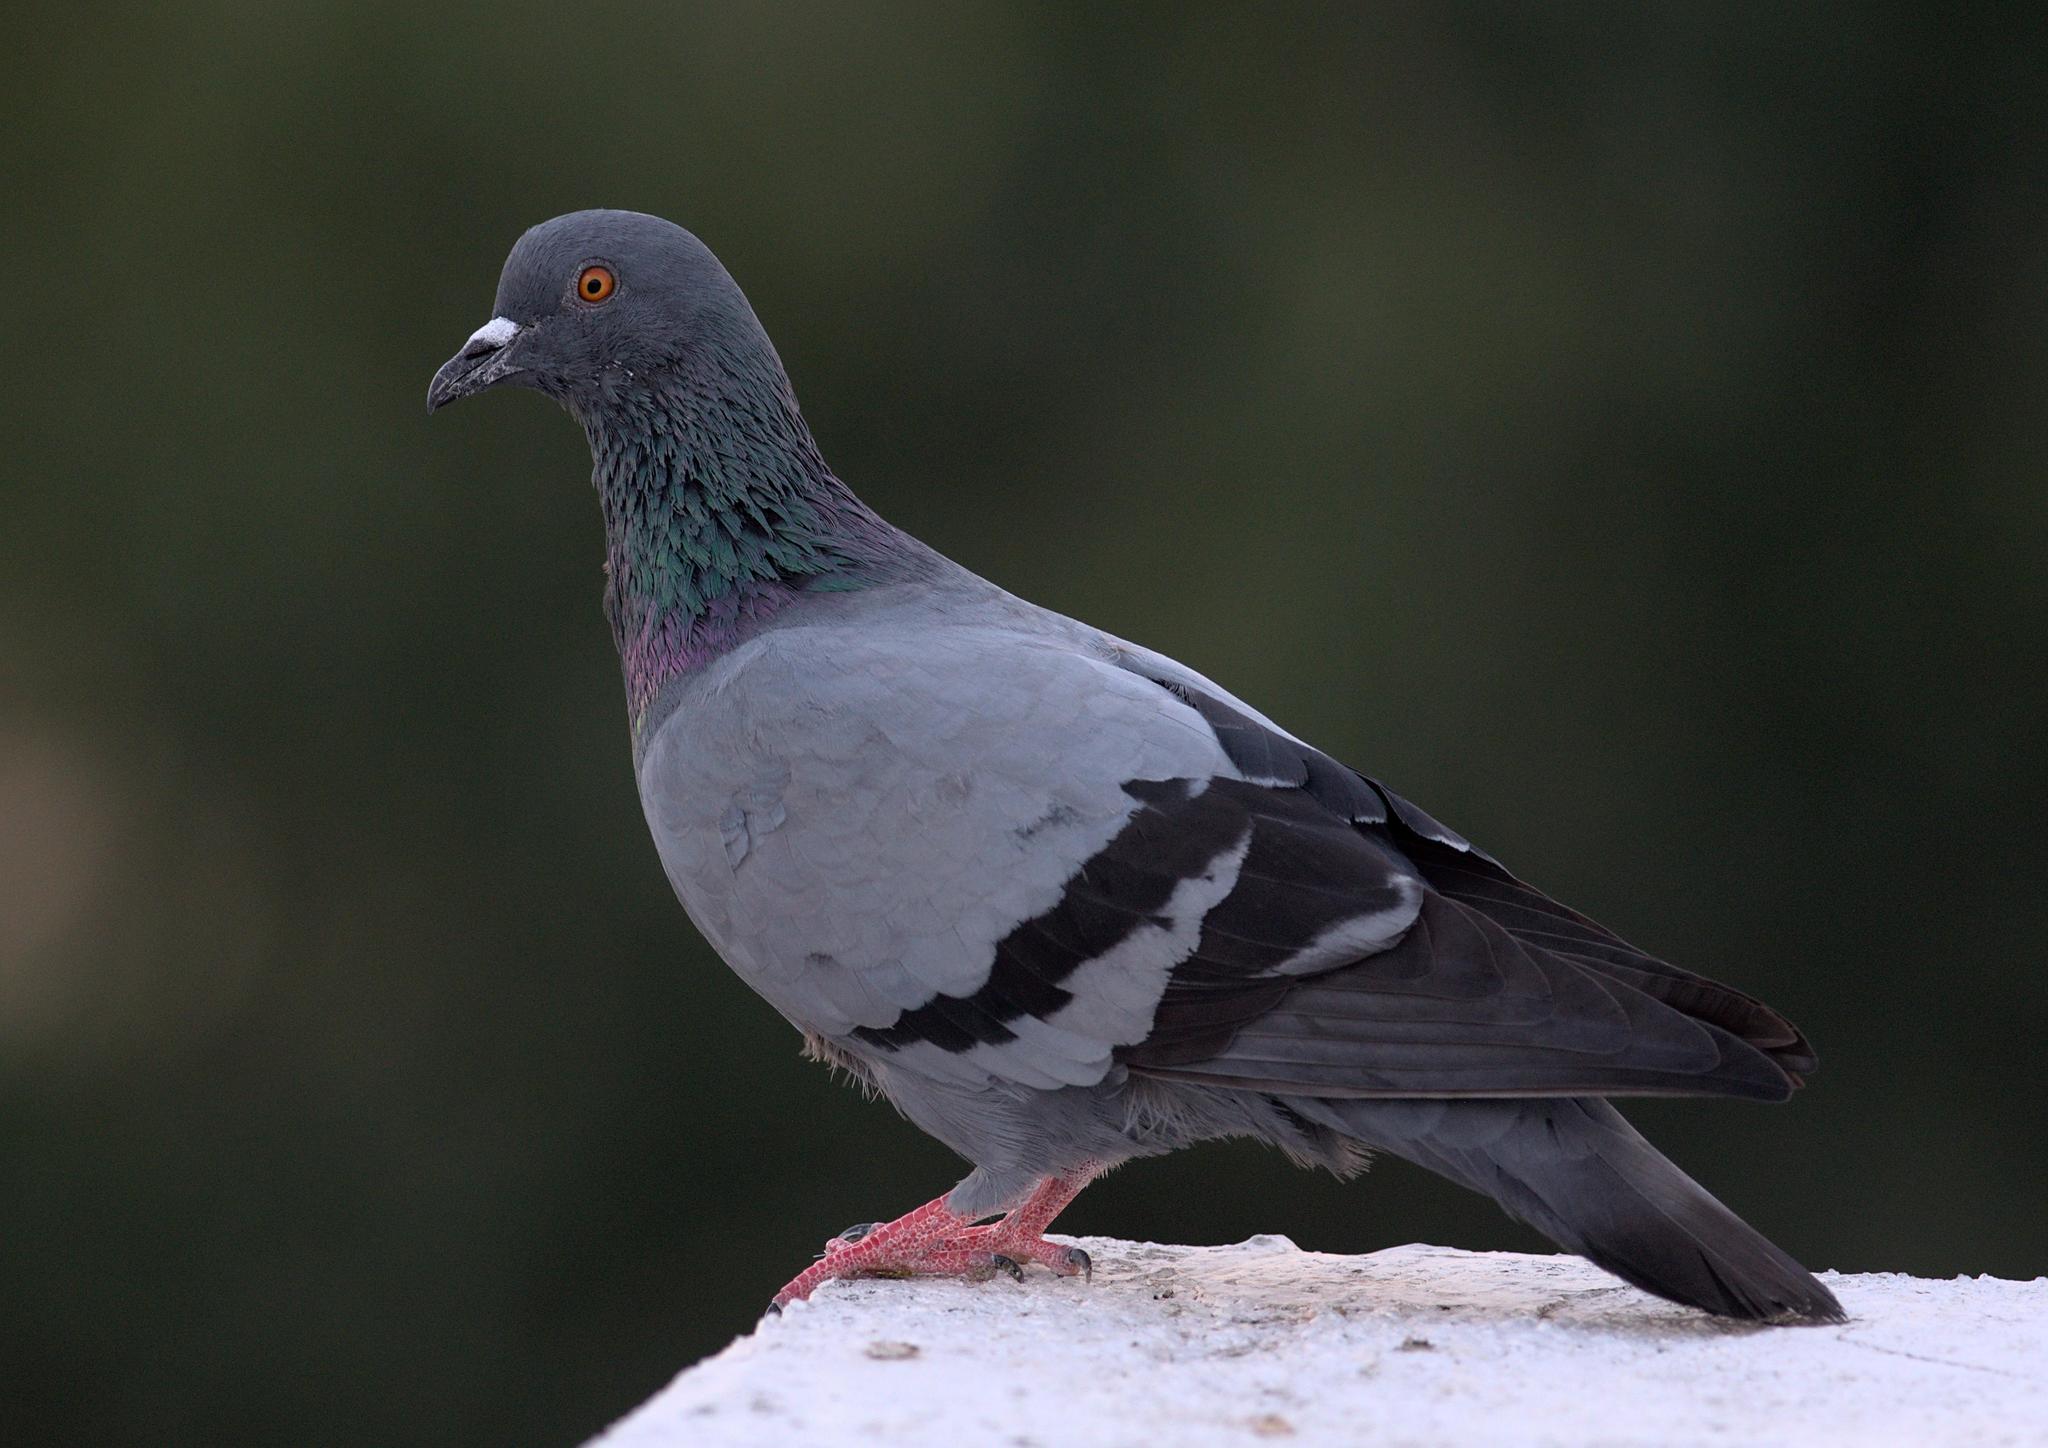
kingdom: Animalia
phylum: Chordata
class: Aves
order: Columbiformes
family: Columbidae
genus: Columba
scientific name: Columba livia
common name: Rock pigeon
